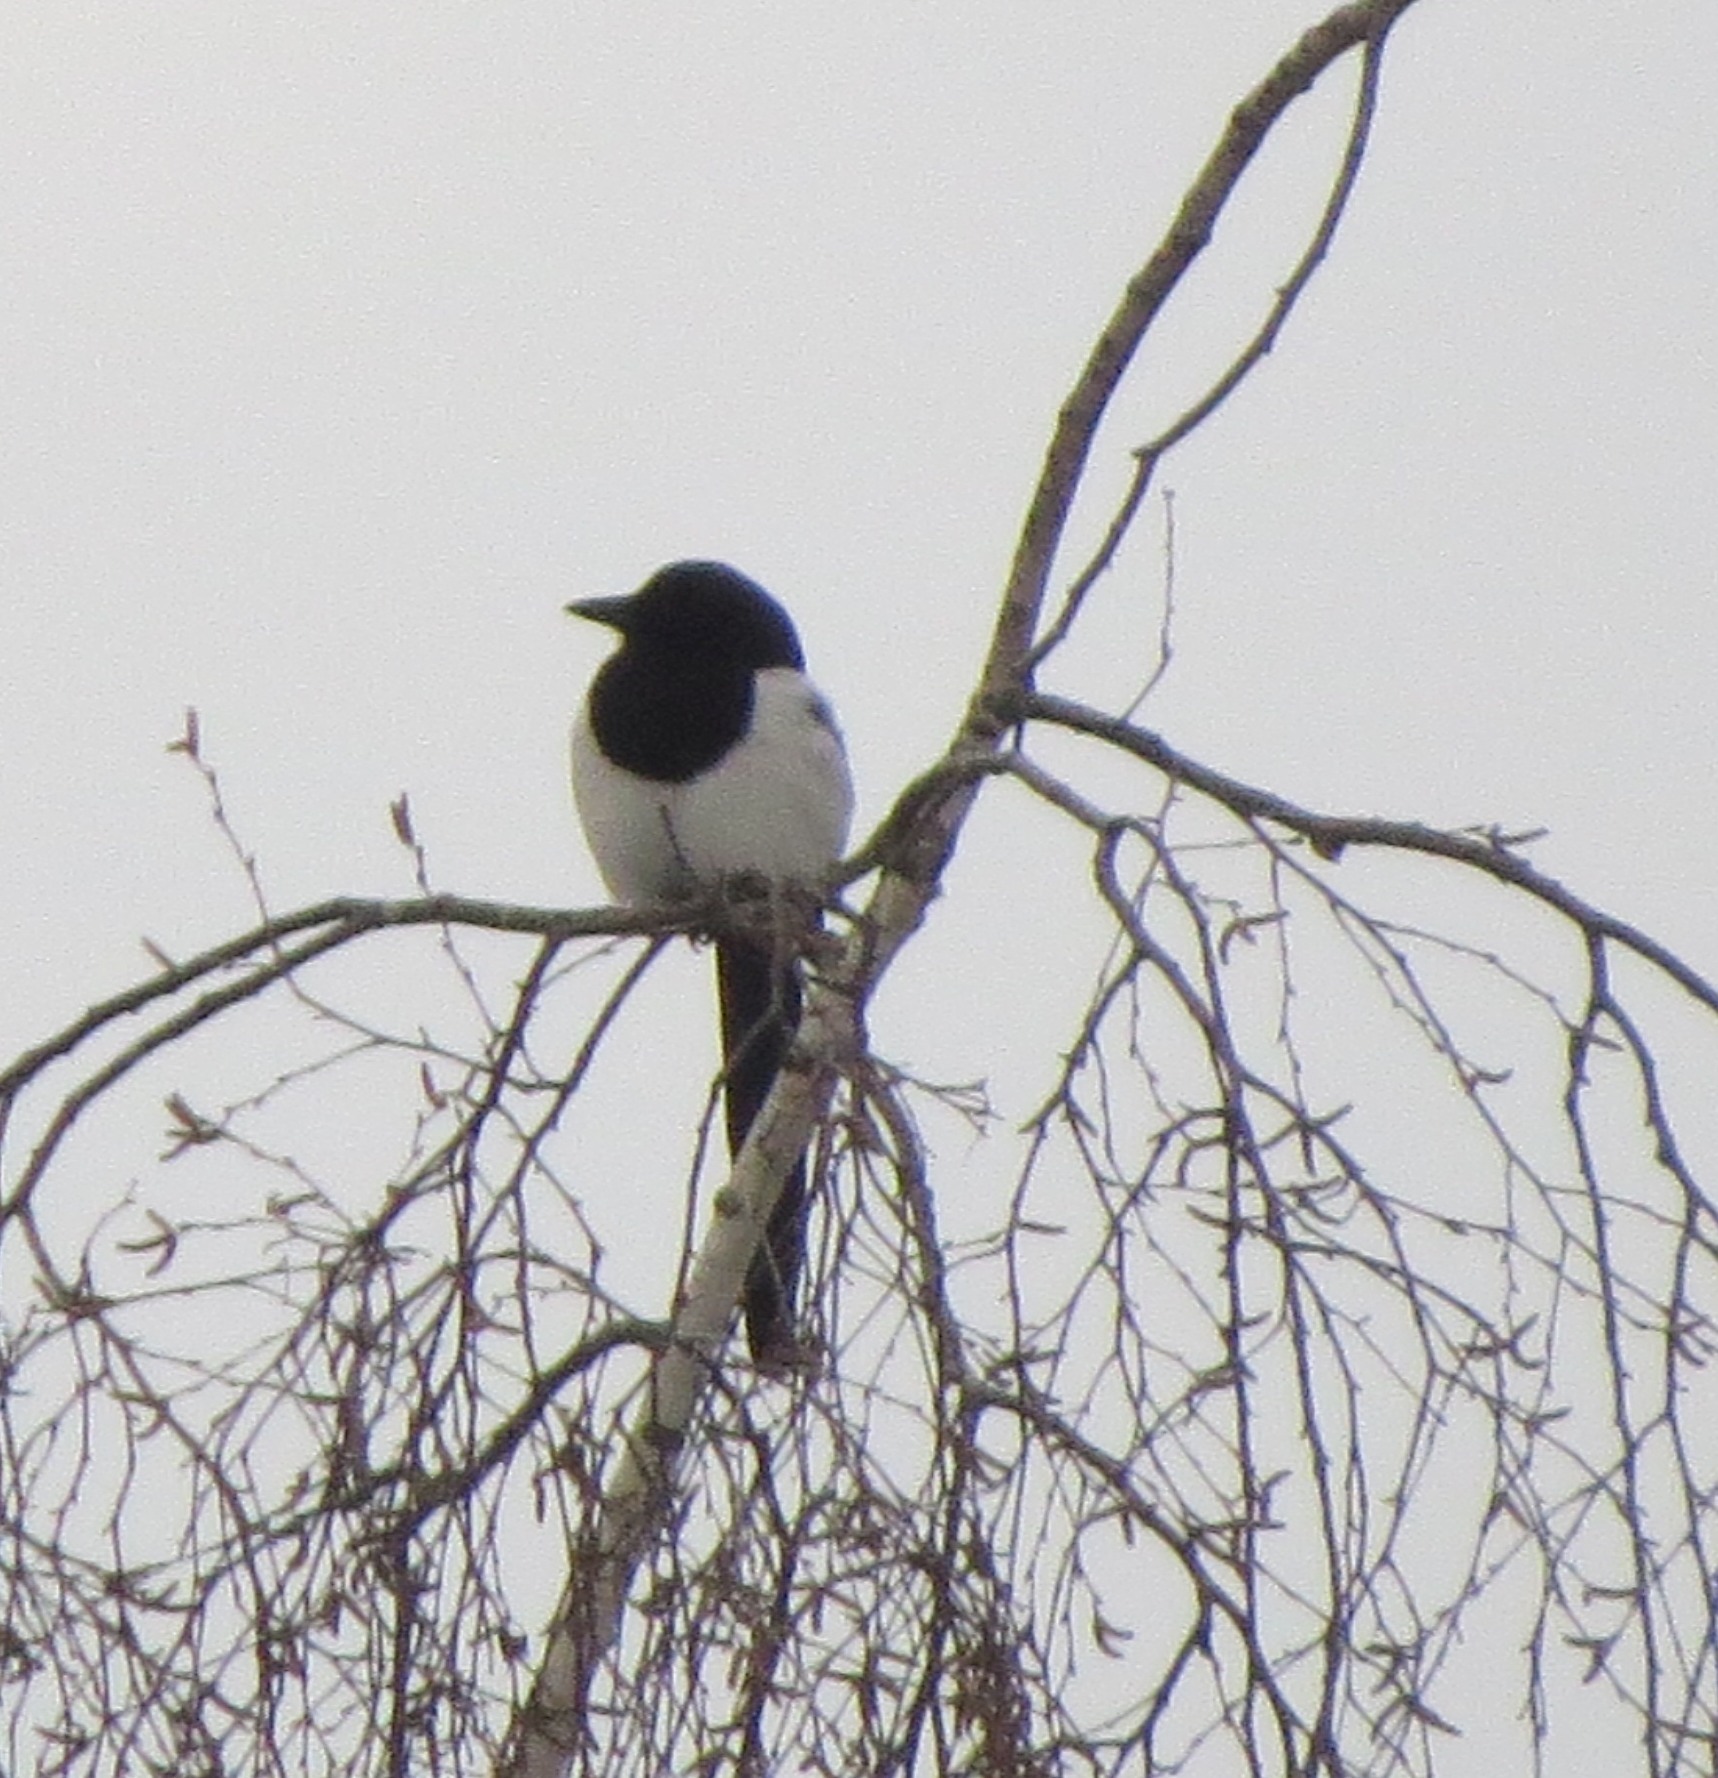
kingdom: Animalia
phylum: Chordata
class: Aves
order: Passeriformes
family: Corvidae
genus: Pica
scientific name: Pica pica
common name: Eurasian magpie
